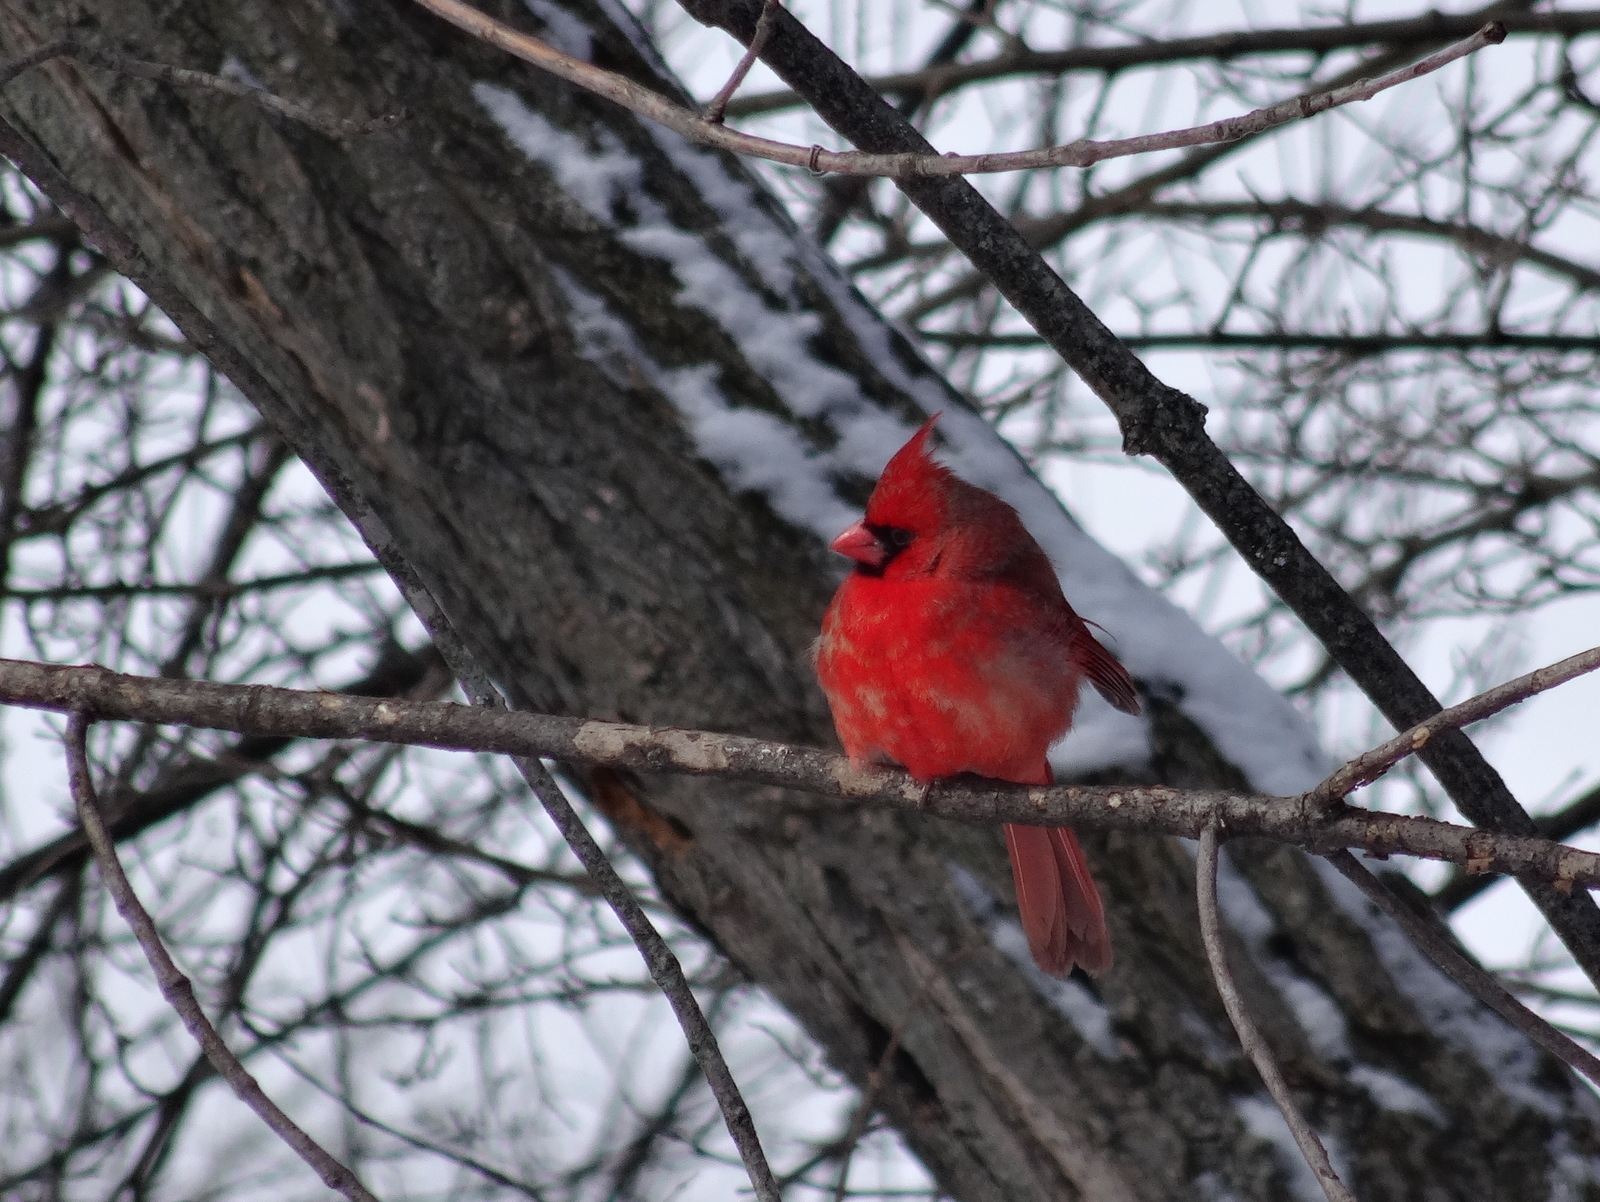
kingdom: Animalia
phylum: Chordata
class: Aves
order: Passeriformes
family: Cardinalidae
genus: Cardinalis
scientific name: Cardinalis cardinalis
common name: Northern cardinal
